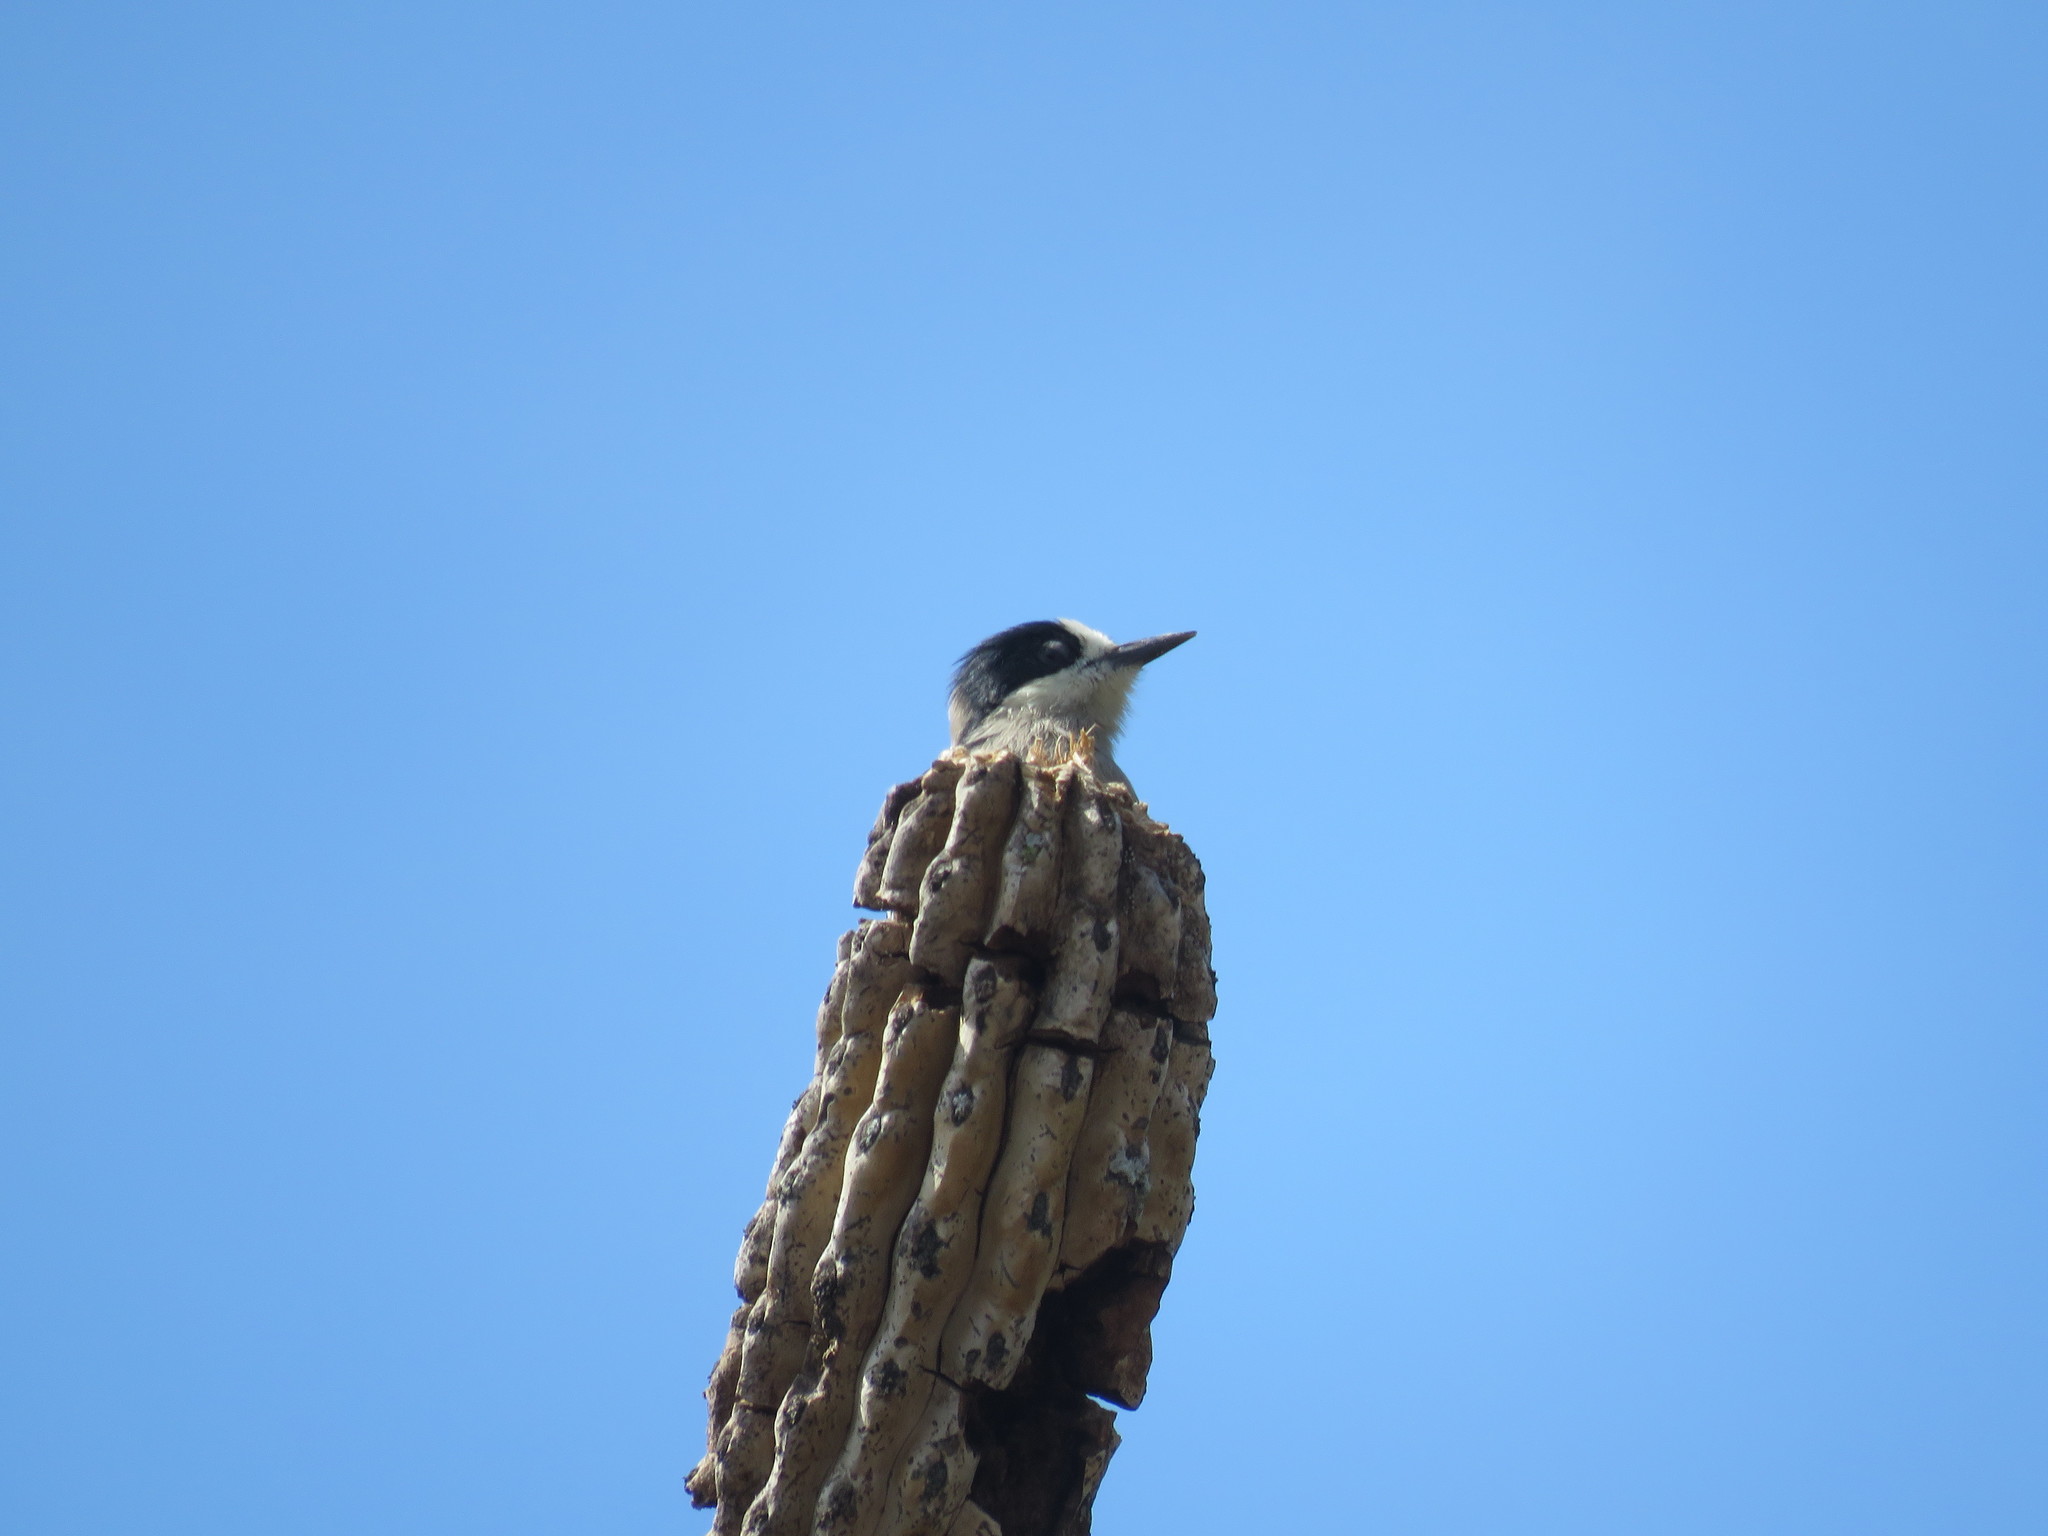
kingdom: Animalia
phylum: Chordata
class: Aves
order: Piciformes
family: Picidae
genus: Melanerpes
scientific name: Melanerpes cactorum
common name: White-fronted woodpecker
